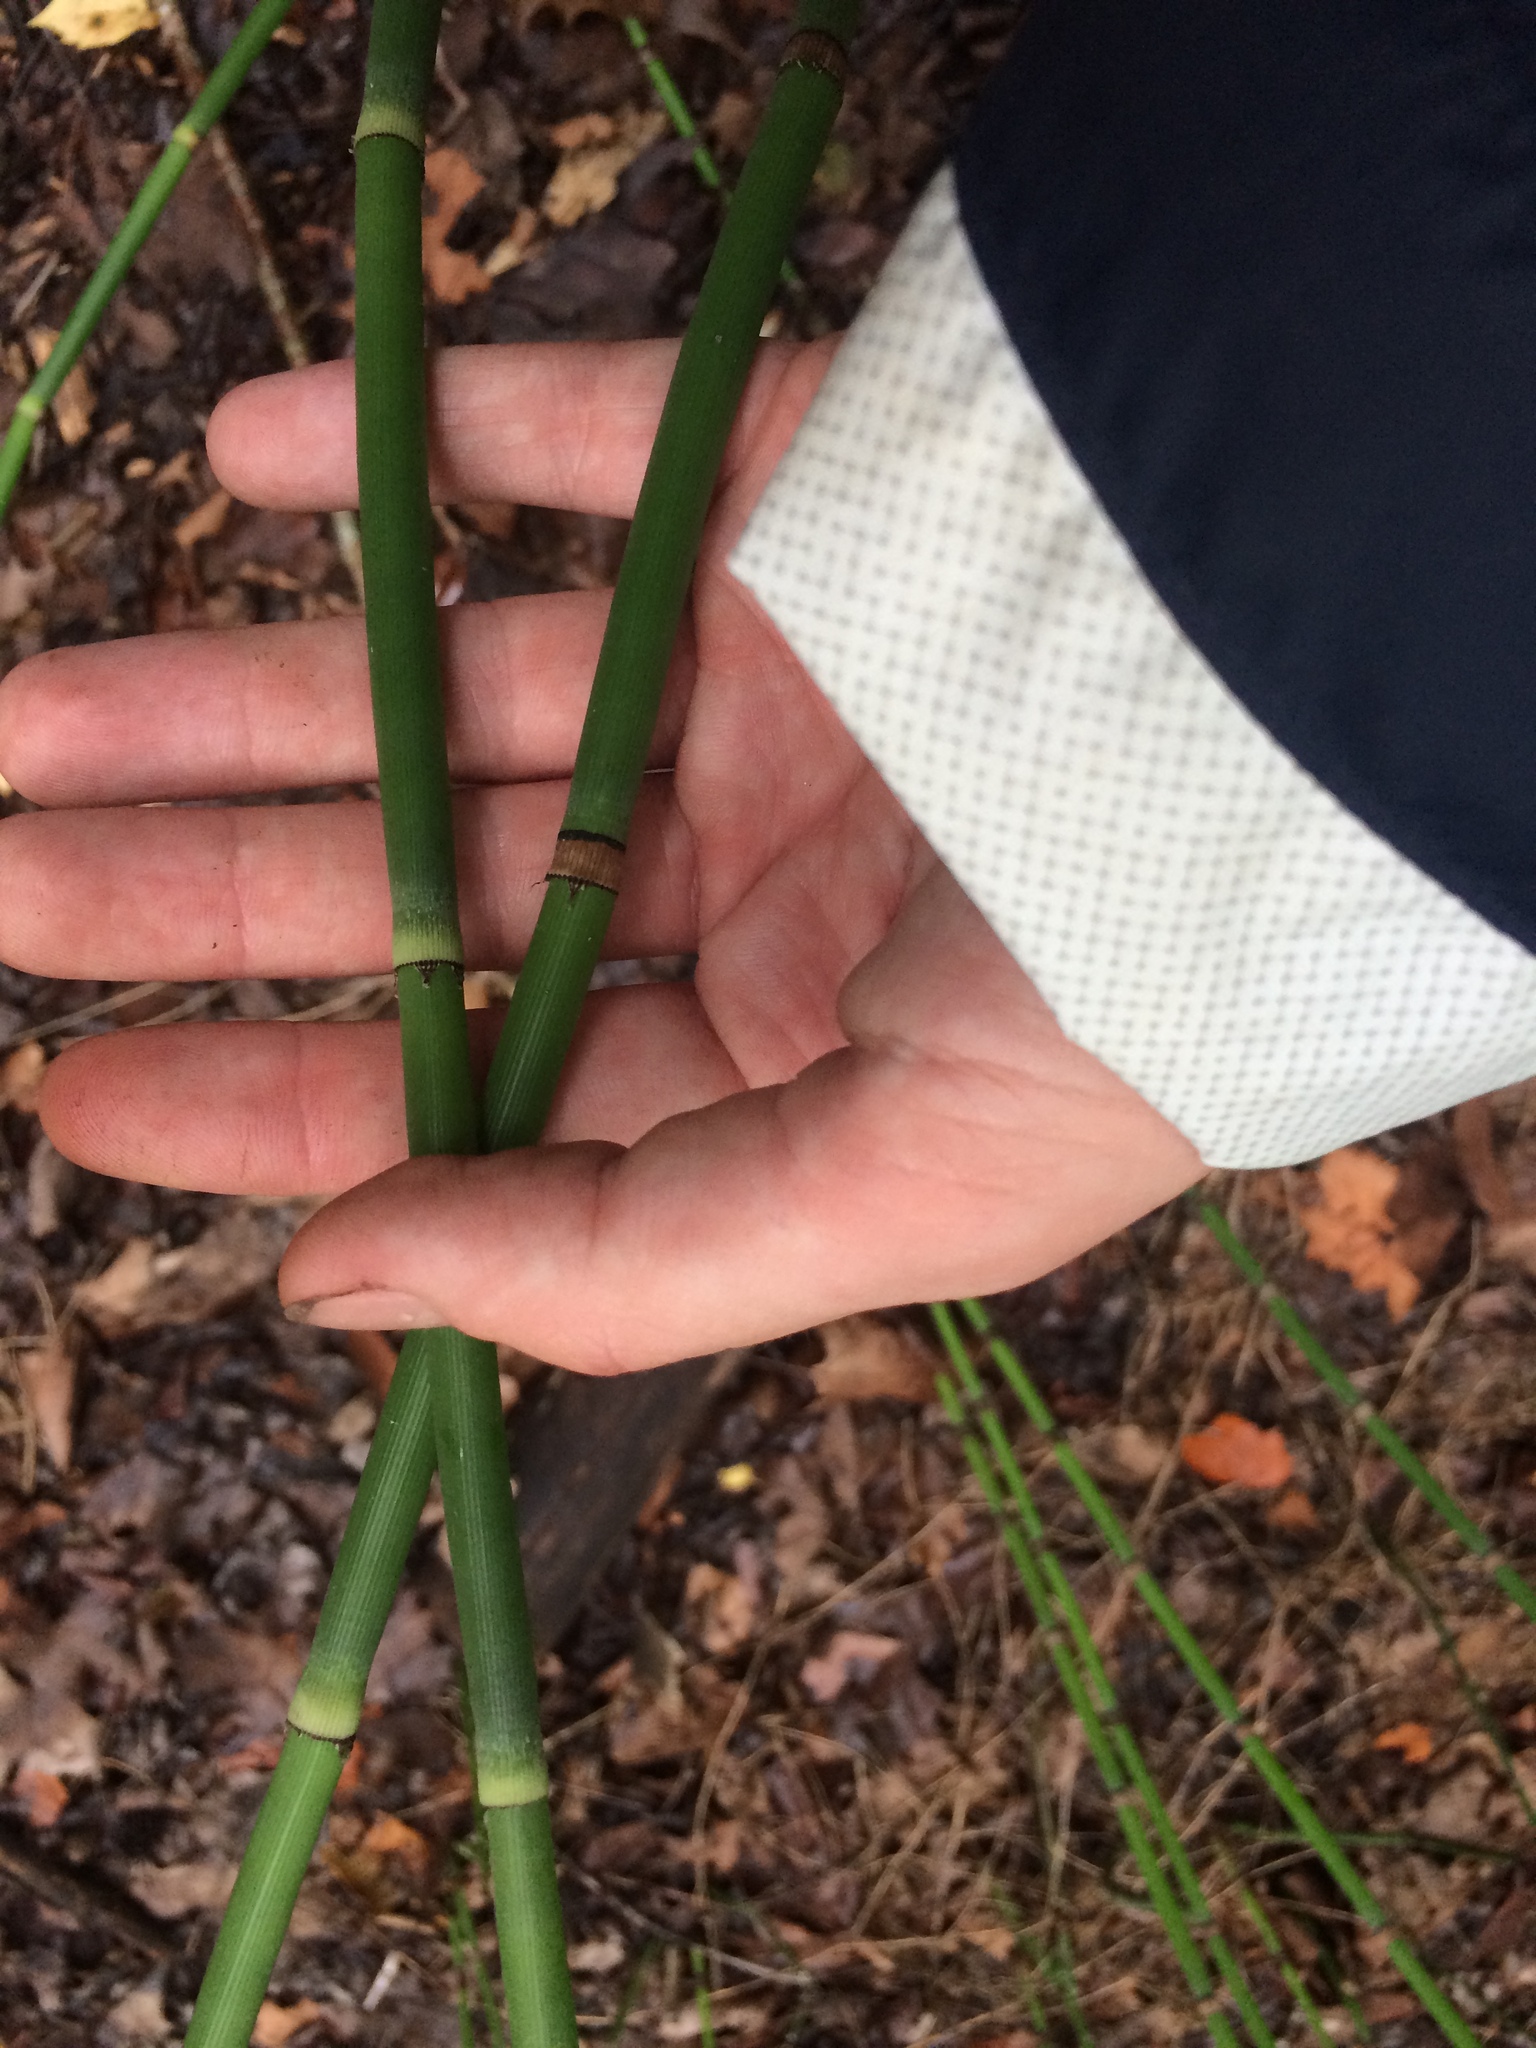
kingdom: Plantae
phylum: Tracheophyta
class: Polypodiopsida
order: Equisetales
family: Equisetaceae
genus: Equisetum
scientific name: Equisetum praealtum
